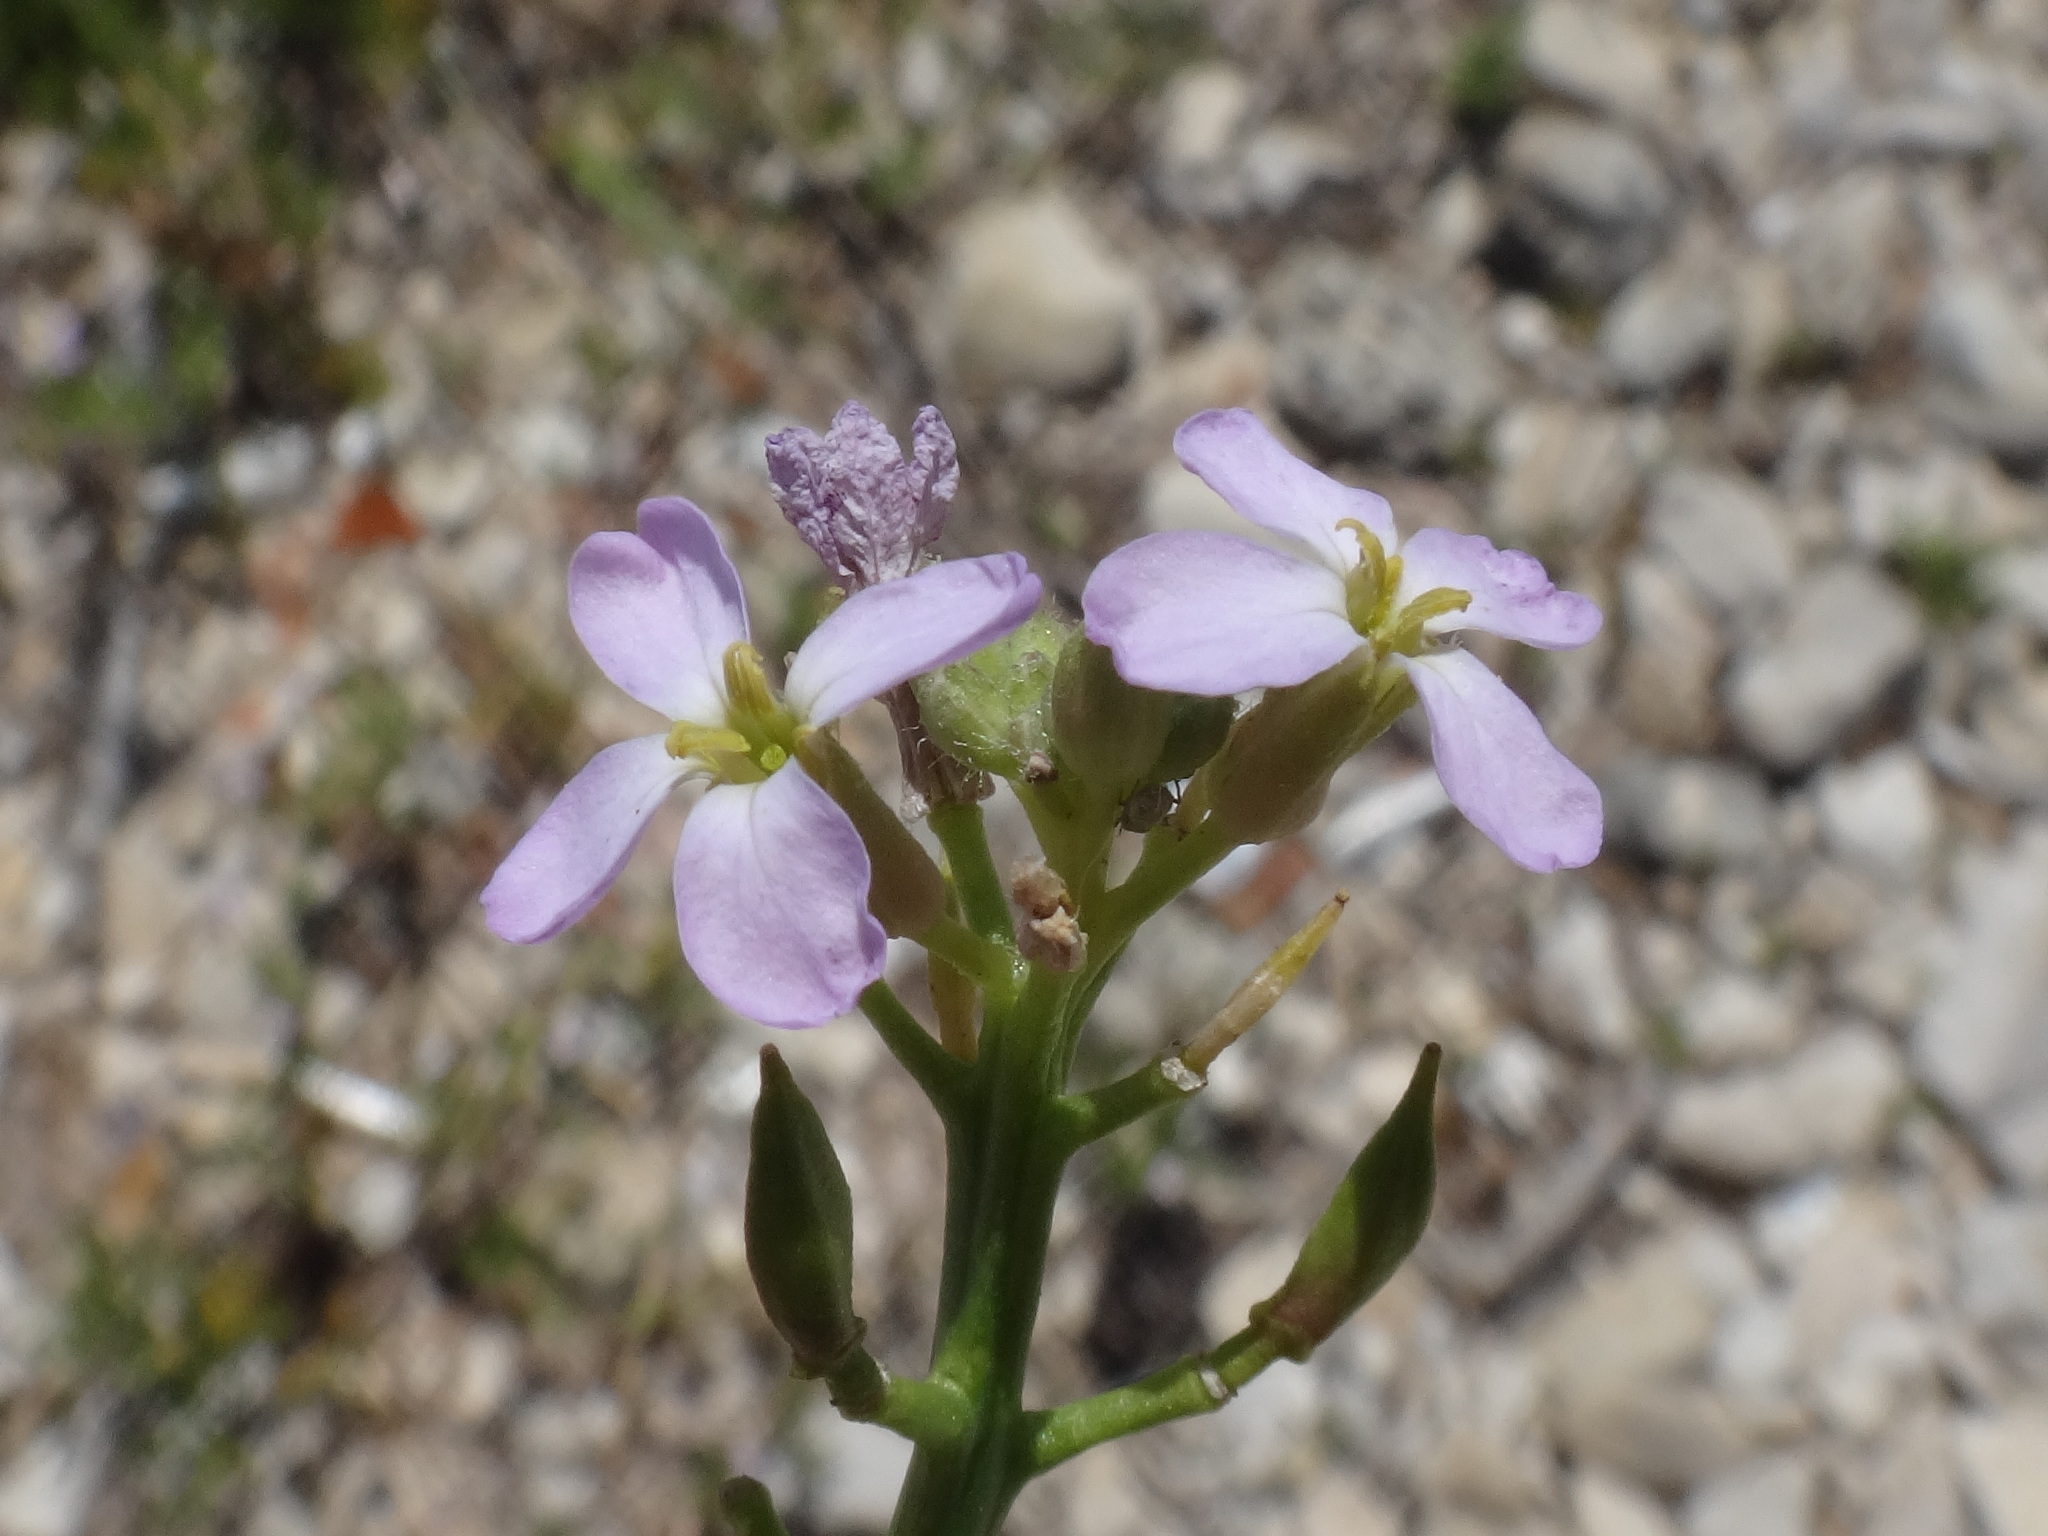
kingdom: Plantae
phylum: Tracheophyta
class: Magnoliopsida
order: Brassicales
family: Brassicaceae
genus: Cakile
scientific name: Cakile maritima
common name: Sea rocket
